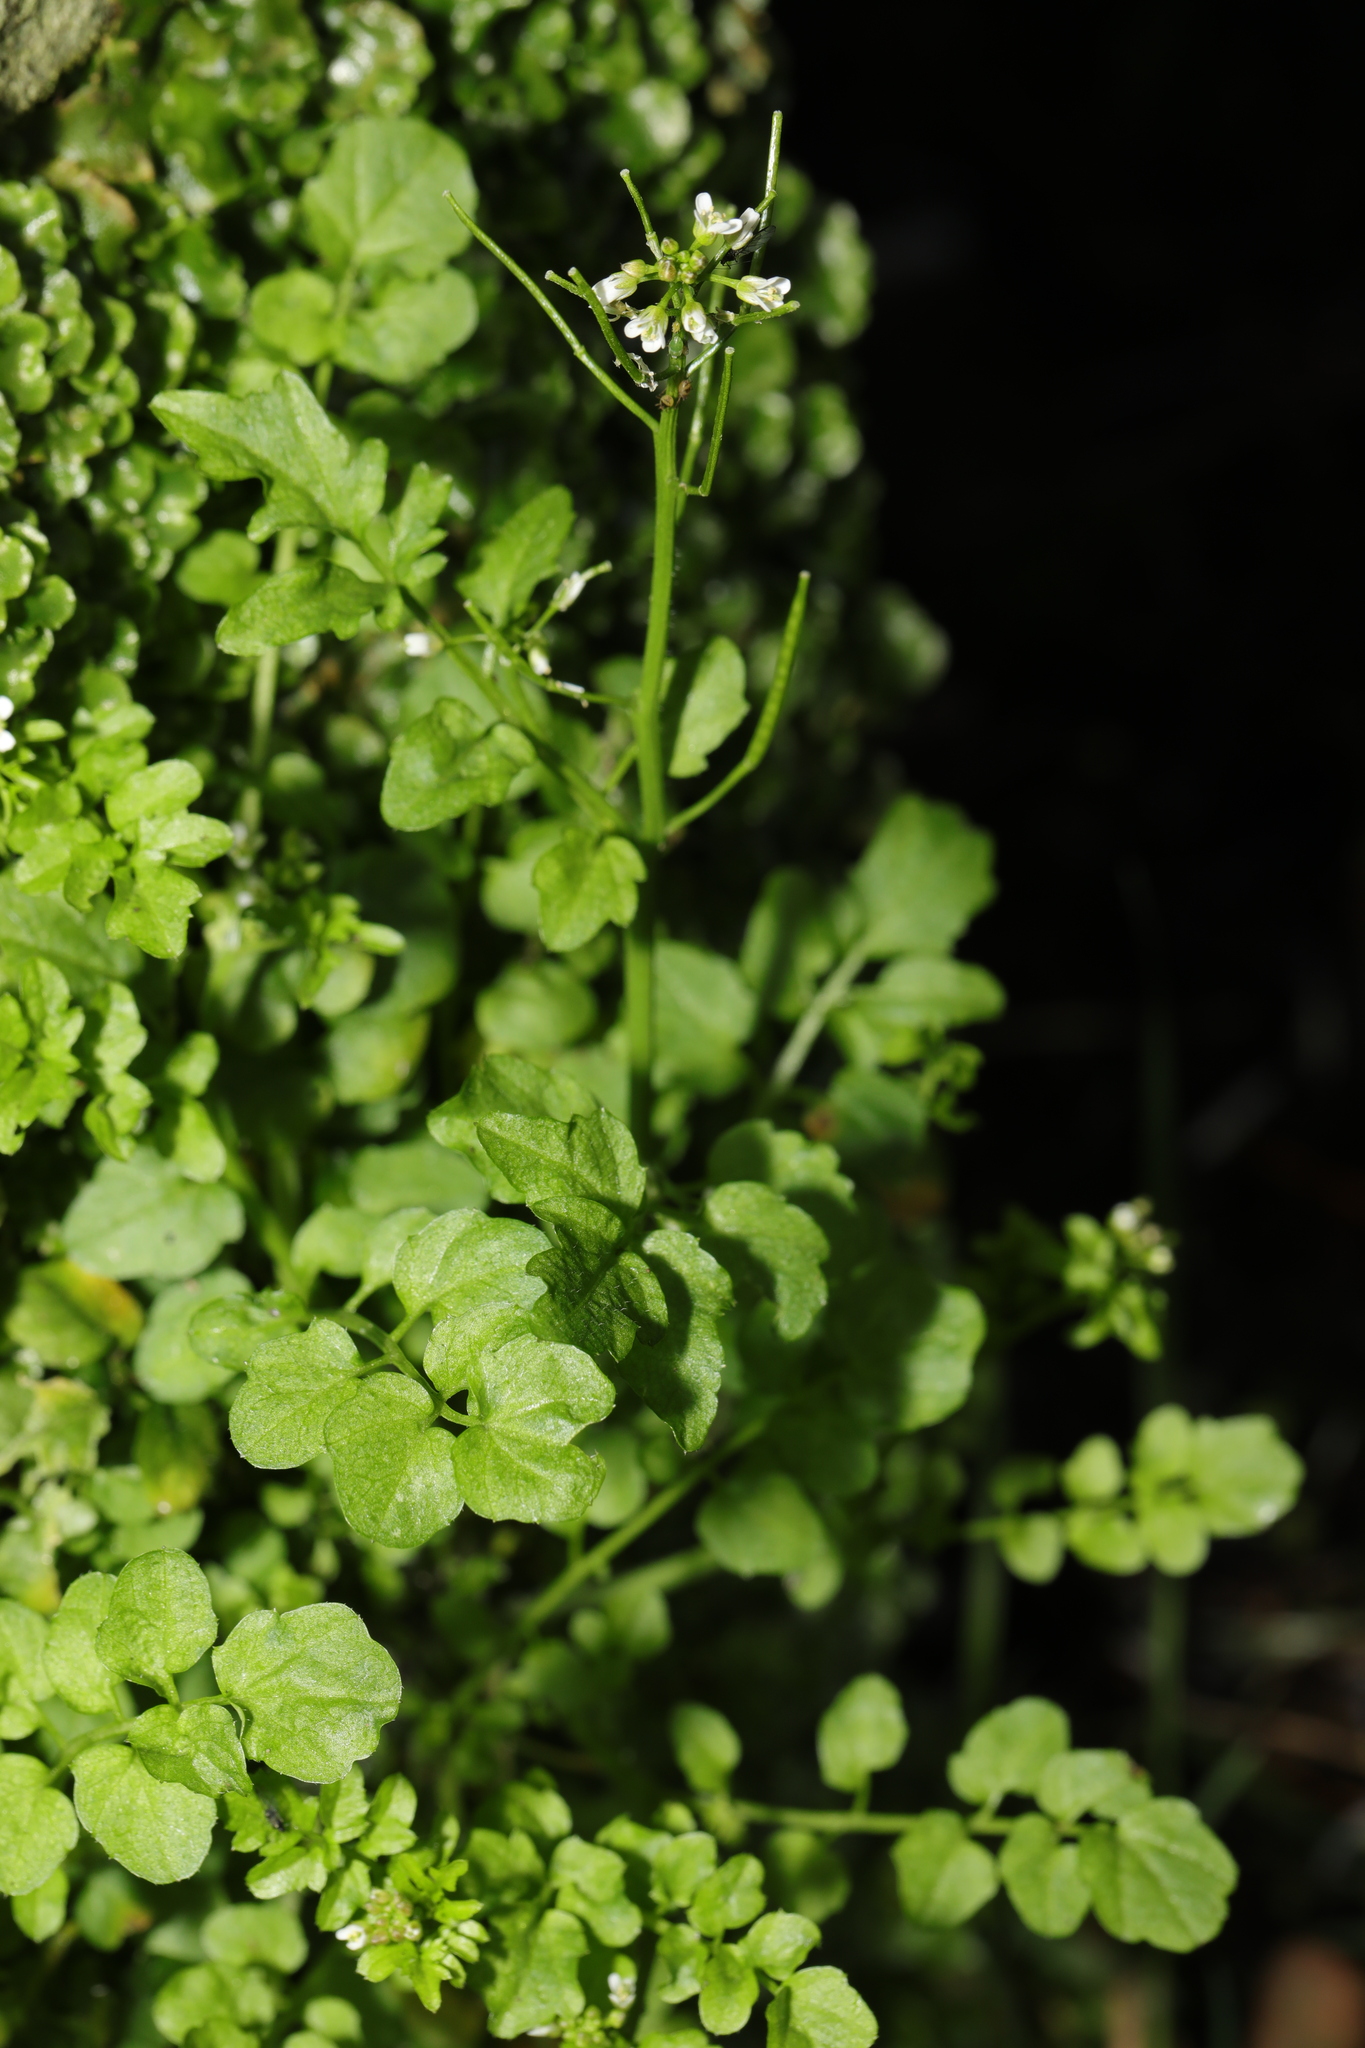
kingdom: Plantae
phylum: Tracheophyta
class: Magnoliopsida
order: Brassicales
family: Brassicaceae
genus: Cardamine
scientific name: Cardamine flexuosa
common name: Woodland bittercress
